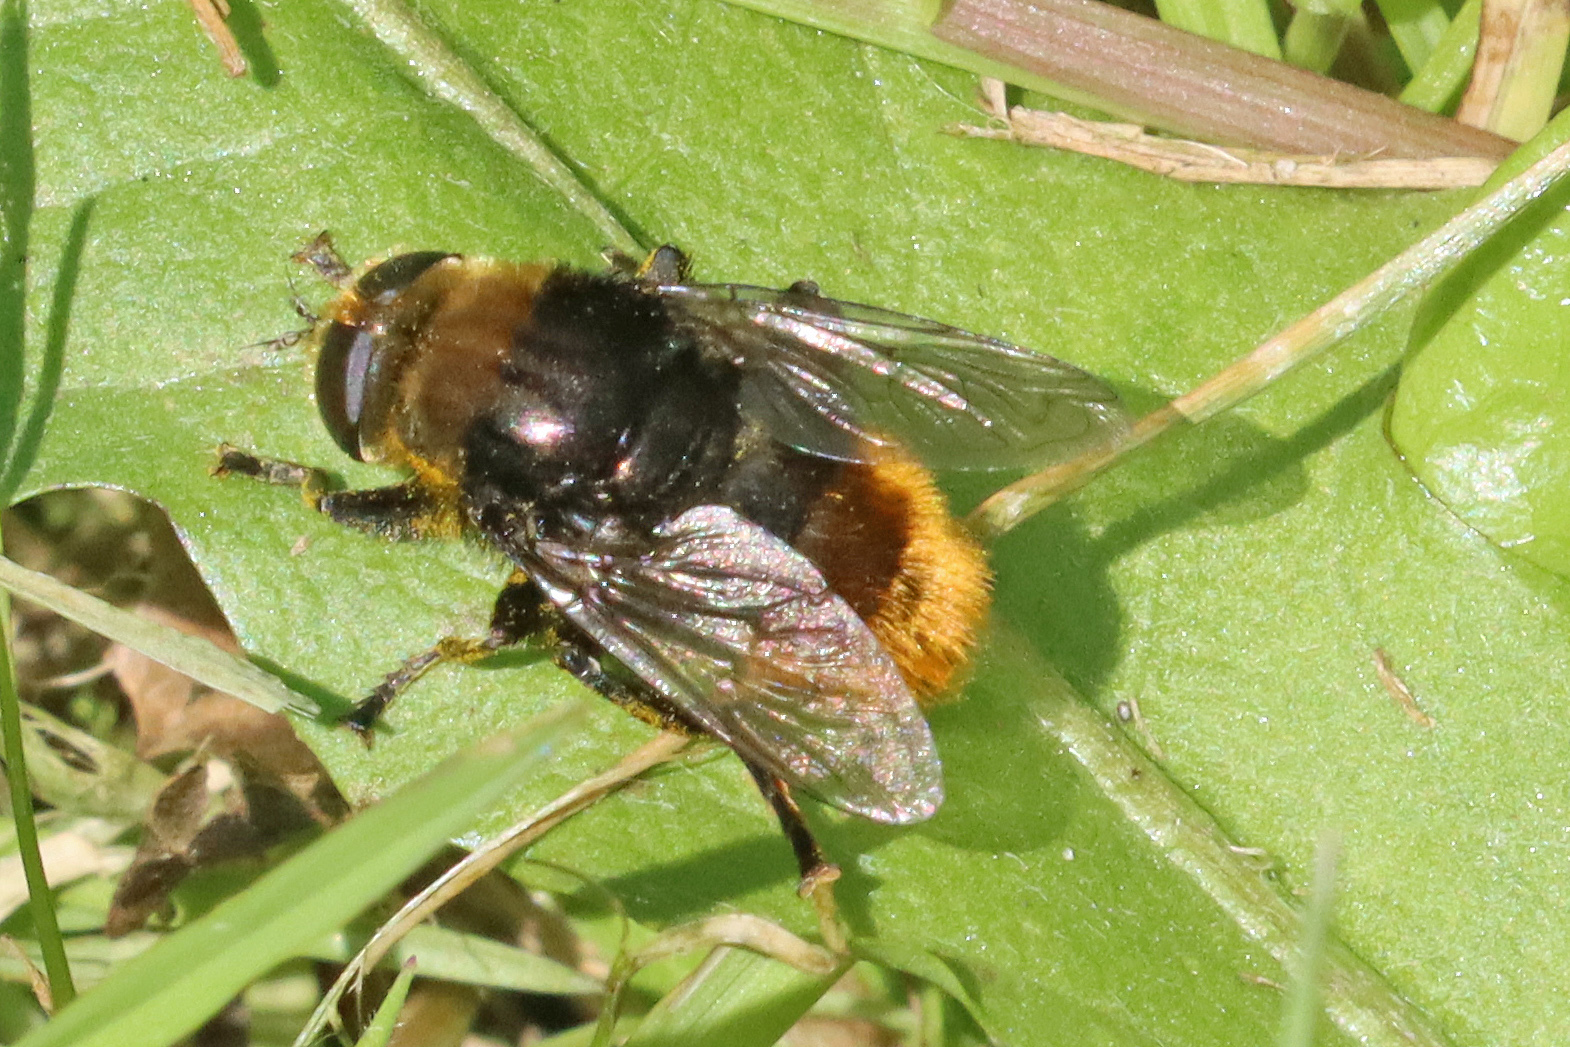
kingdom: Animalia
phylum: Arthropoda
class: Insecta
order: Diptera
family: Syrphidae
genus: Merodon
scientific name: Merodon equestris
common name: Greater bulb-fly
